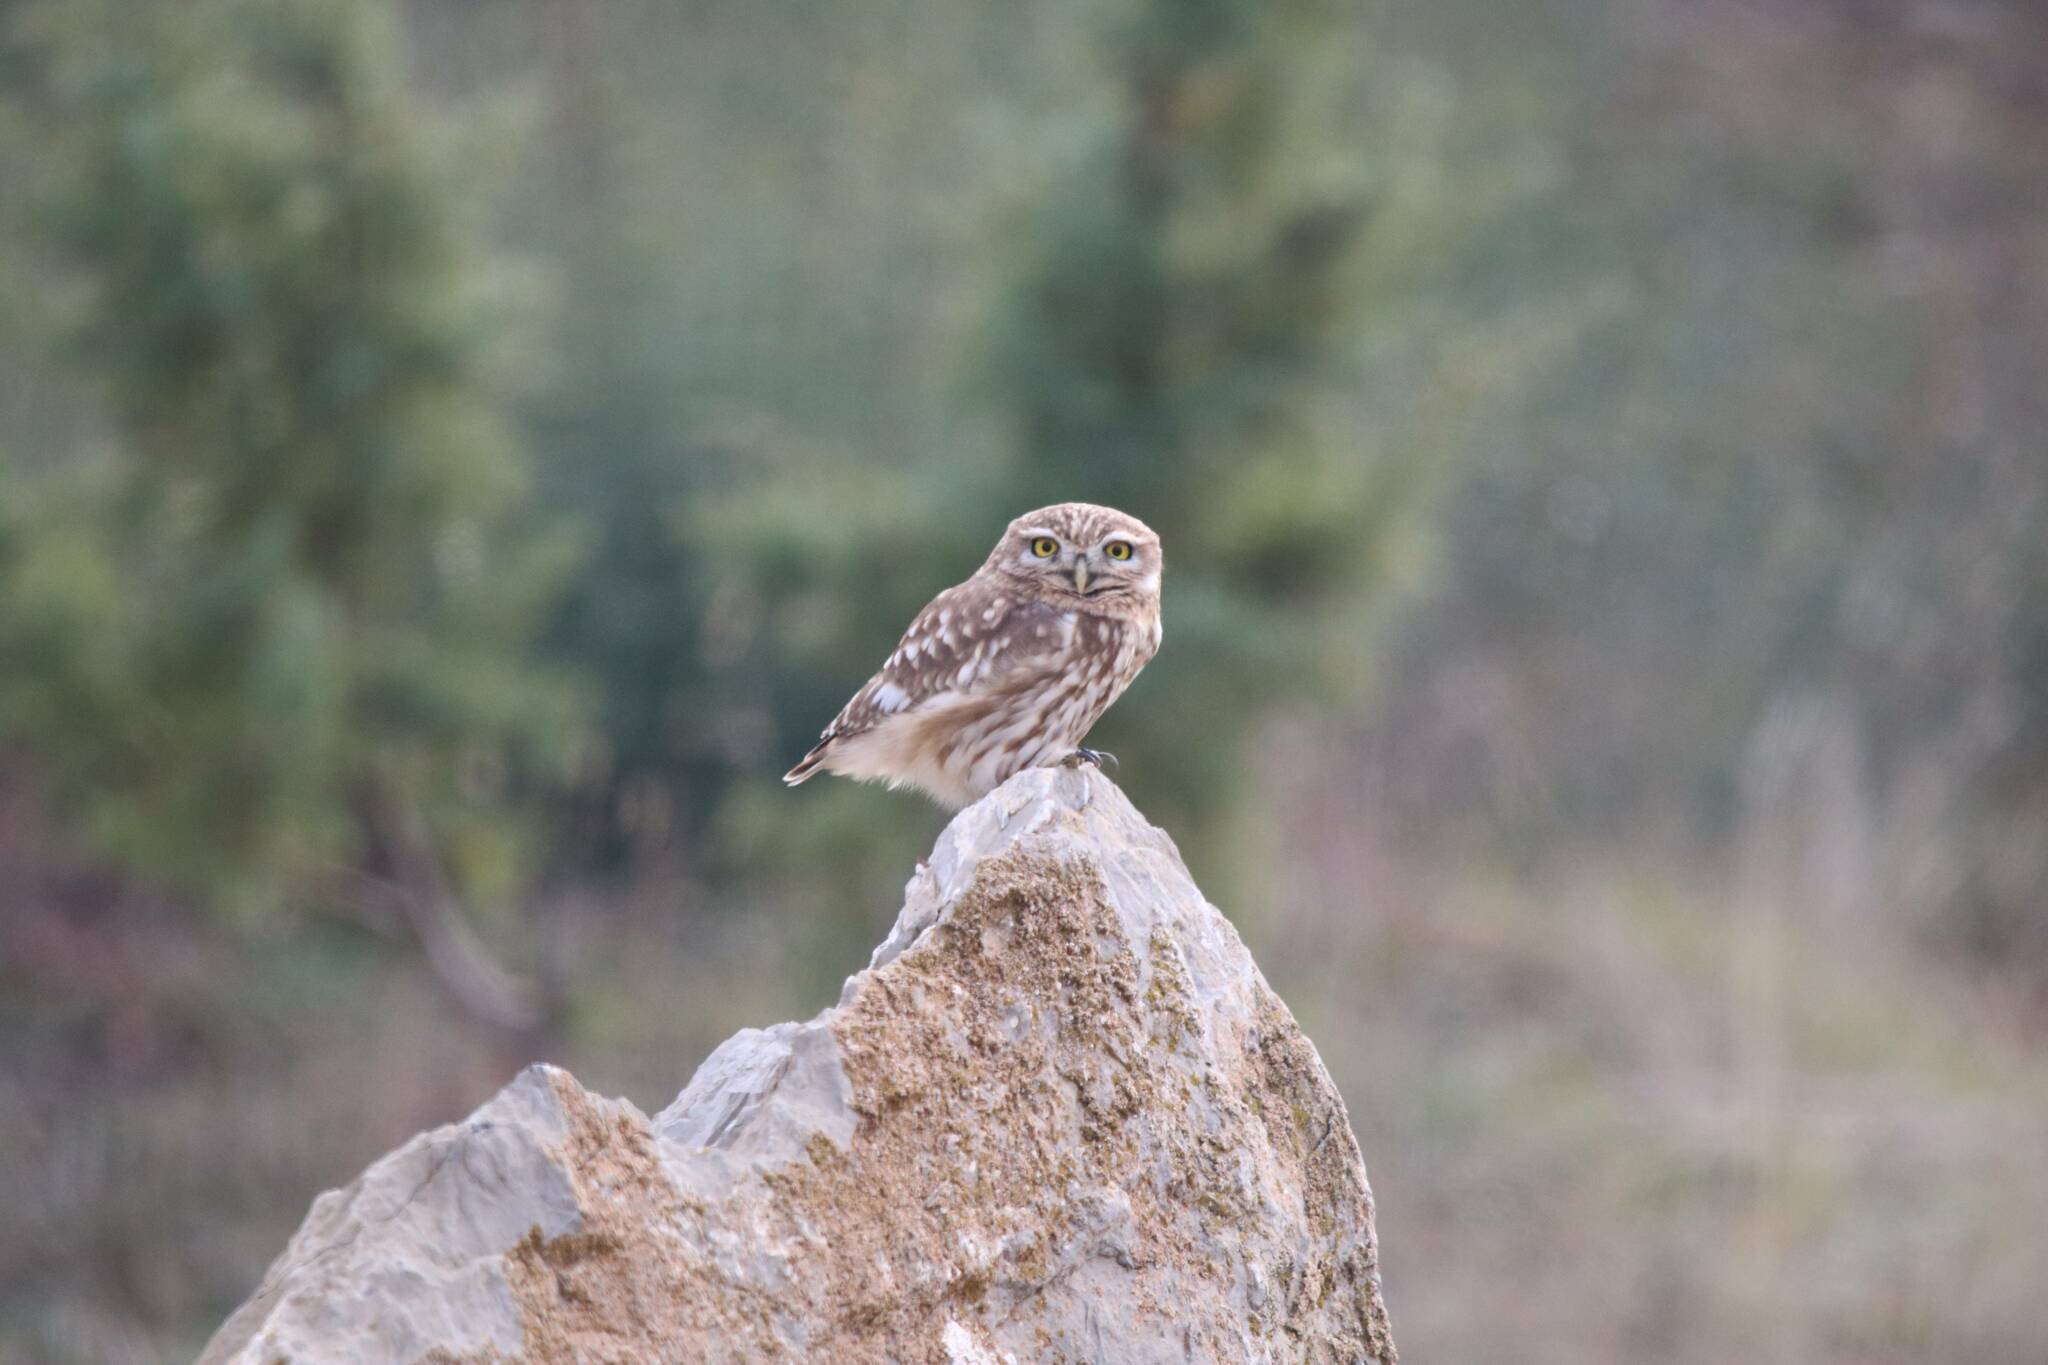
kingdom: Animalia
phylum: Chordata
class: Aves
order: Strigiformes
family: Strigidae
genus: Athene
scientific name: Athene noctua
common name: Little owl
